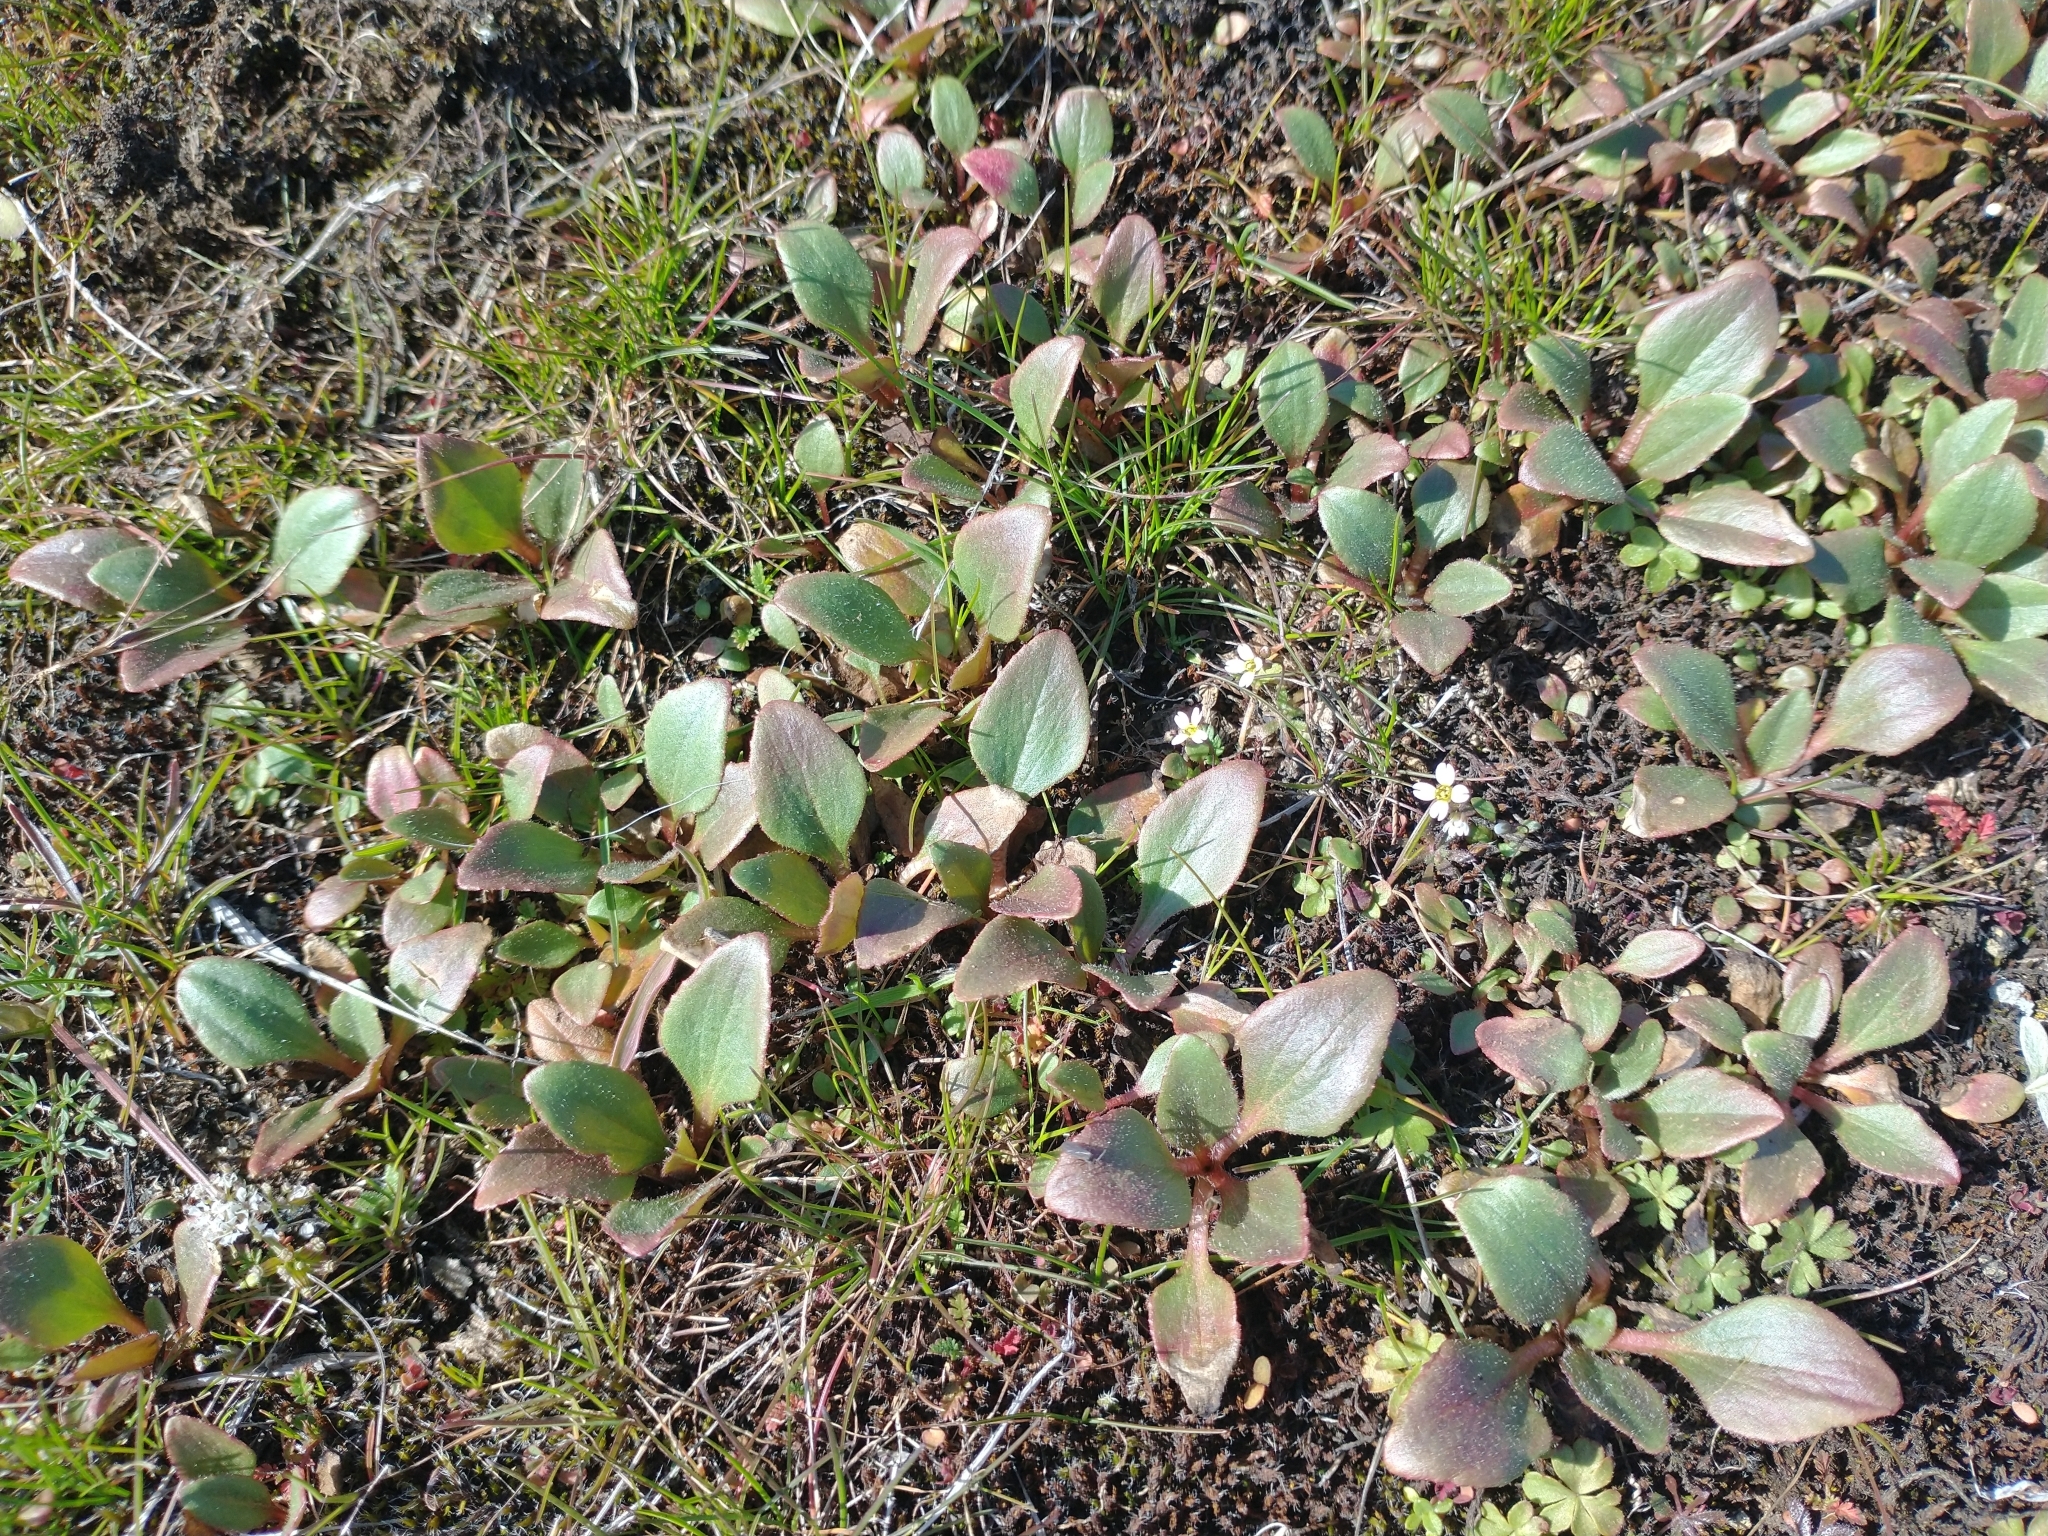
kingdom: Plantae
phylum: Tracheophyta
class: Magnoliopsida
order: Saxifragales
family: Saxifragaceae
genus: Micranthes
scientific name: Micranthes integrifolia
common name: Wholeleaf saxifrage
